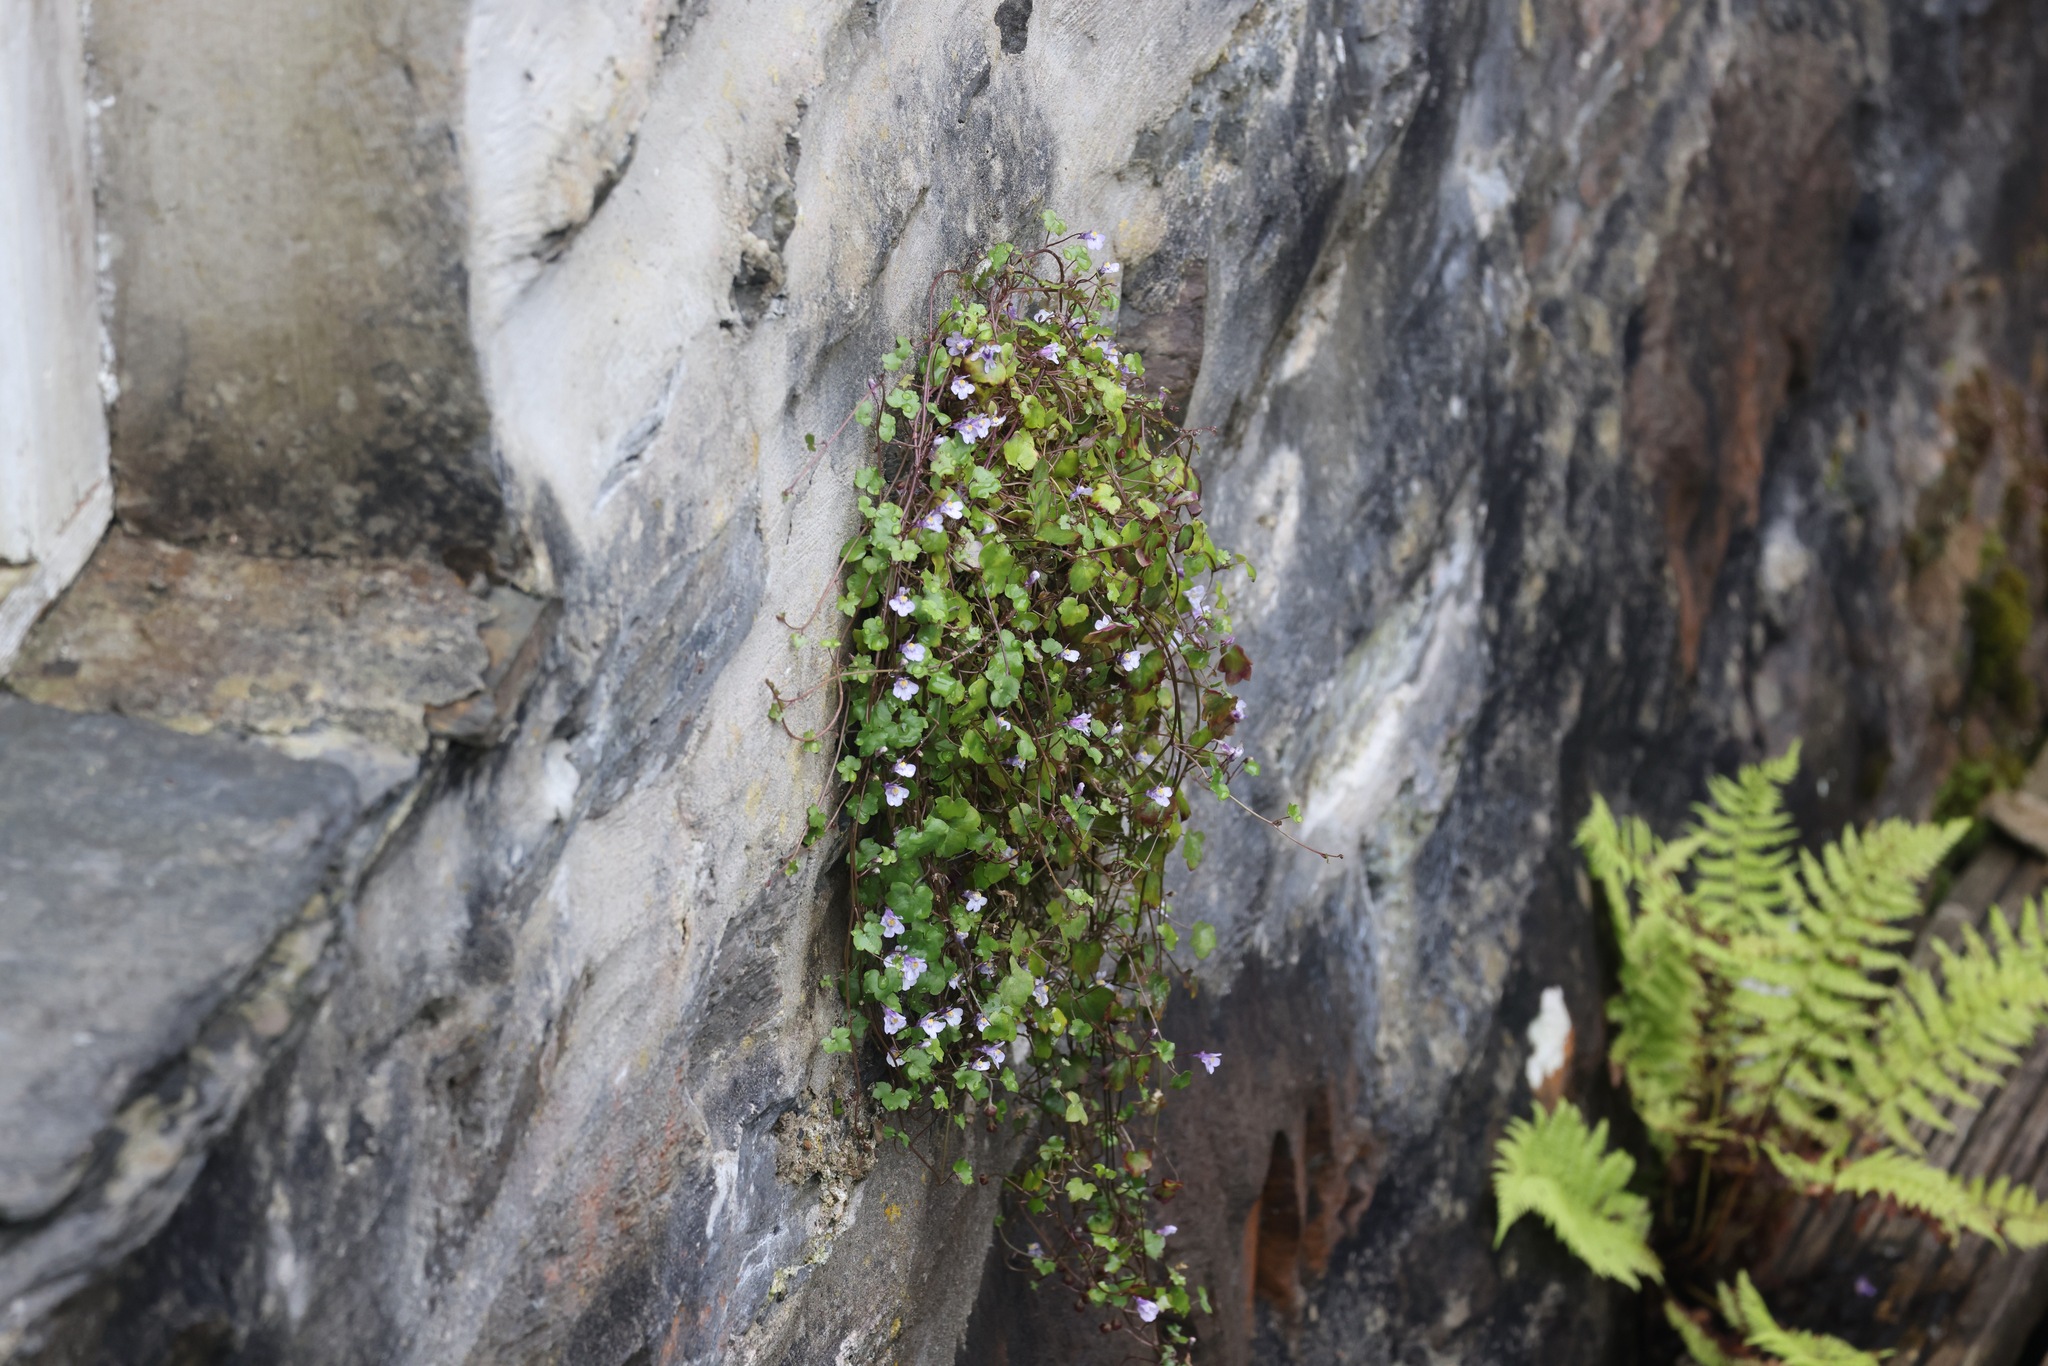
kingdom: Plantae
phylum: Tracheophyta
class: Magnoliopsida
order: Lamiales
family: Plantaginaceae
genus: Cymbalaria
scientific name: Cymbalaria muralis
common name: Ivy-leaved toadflax
